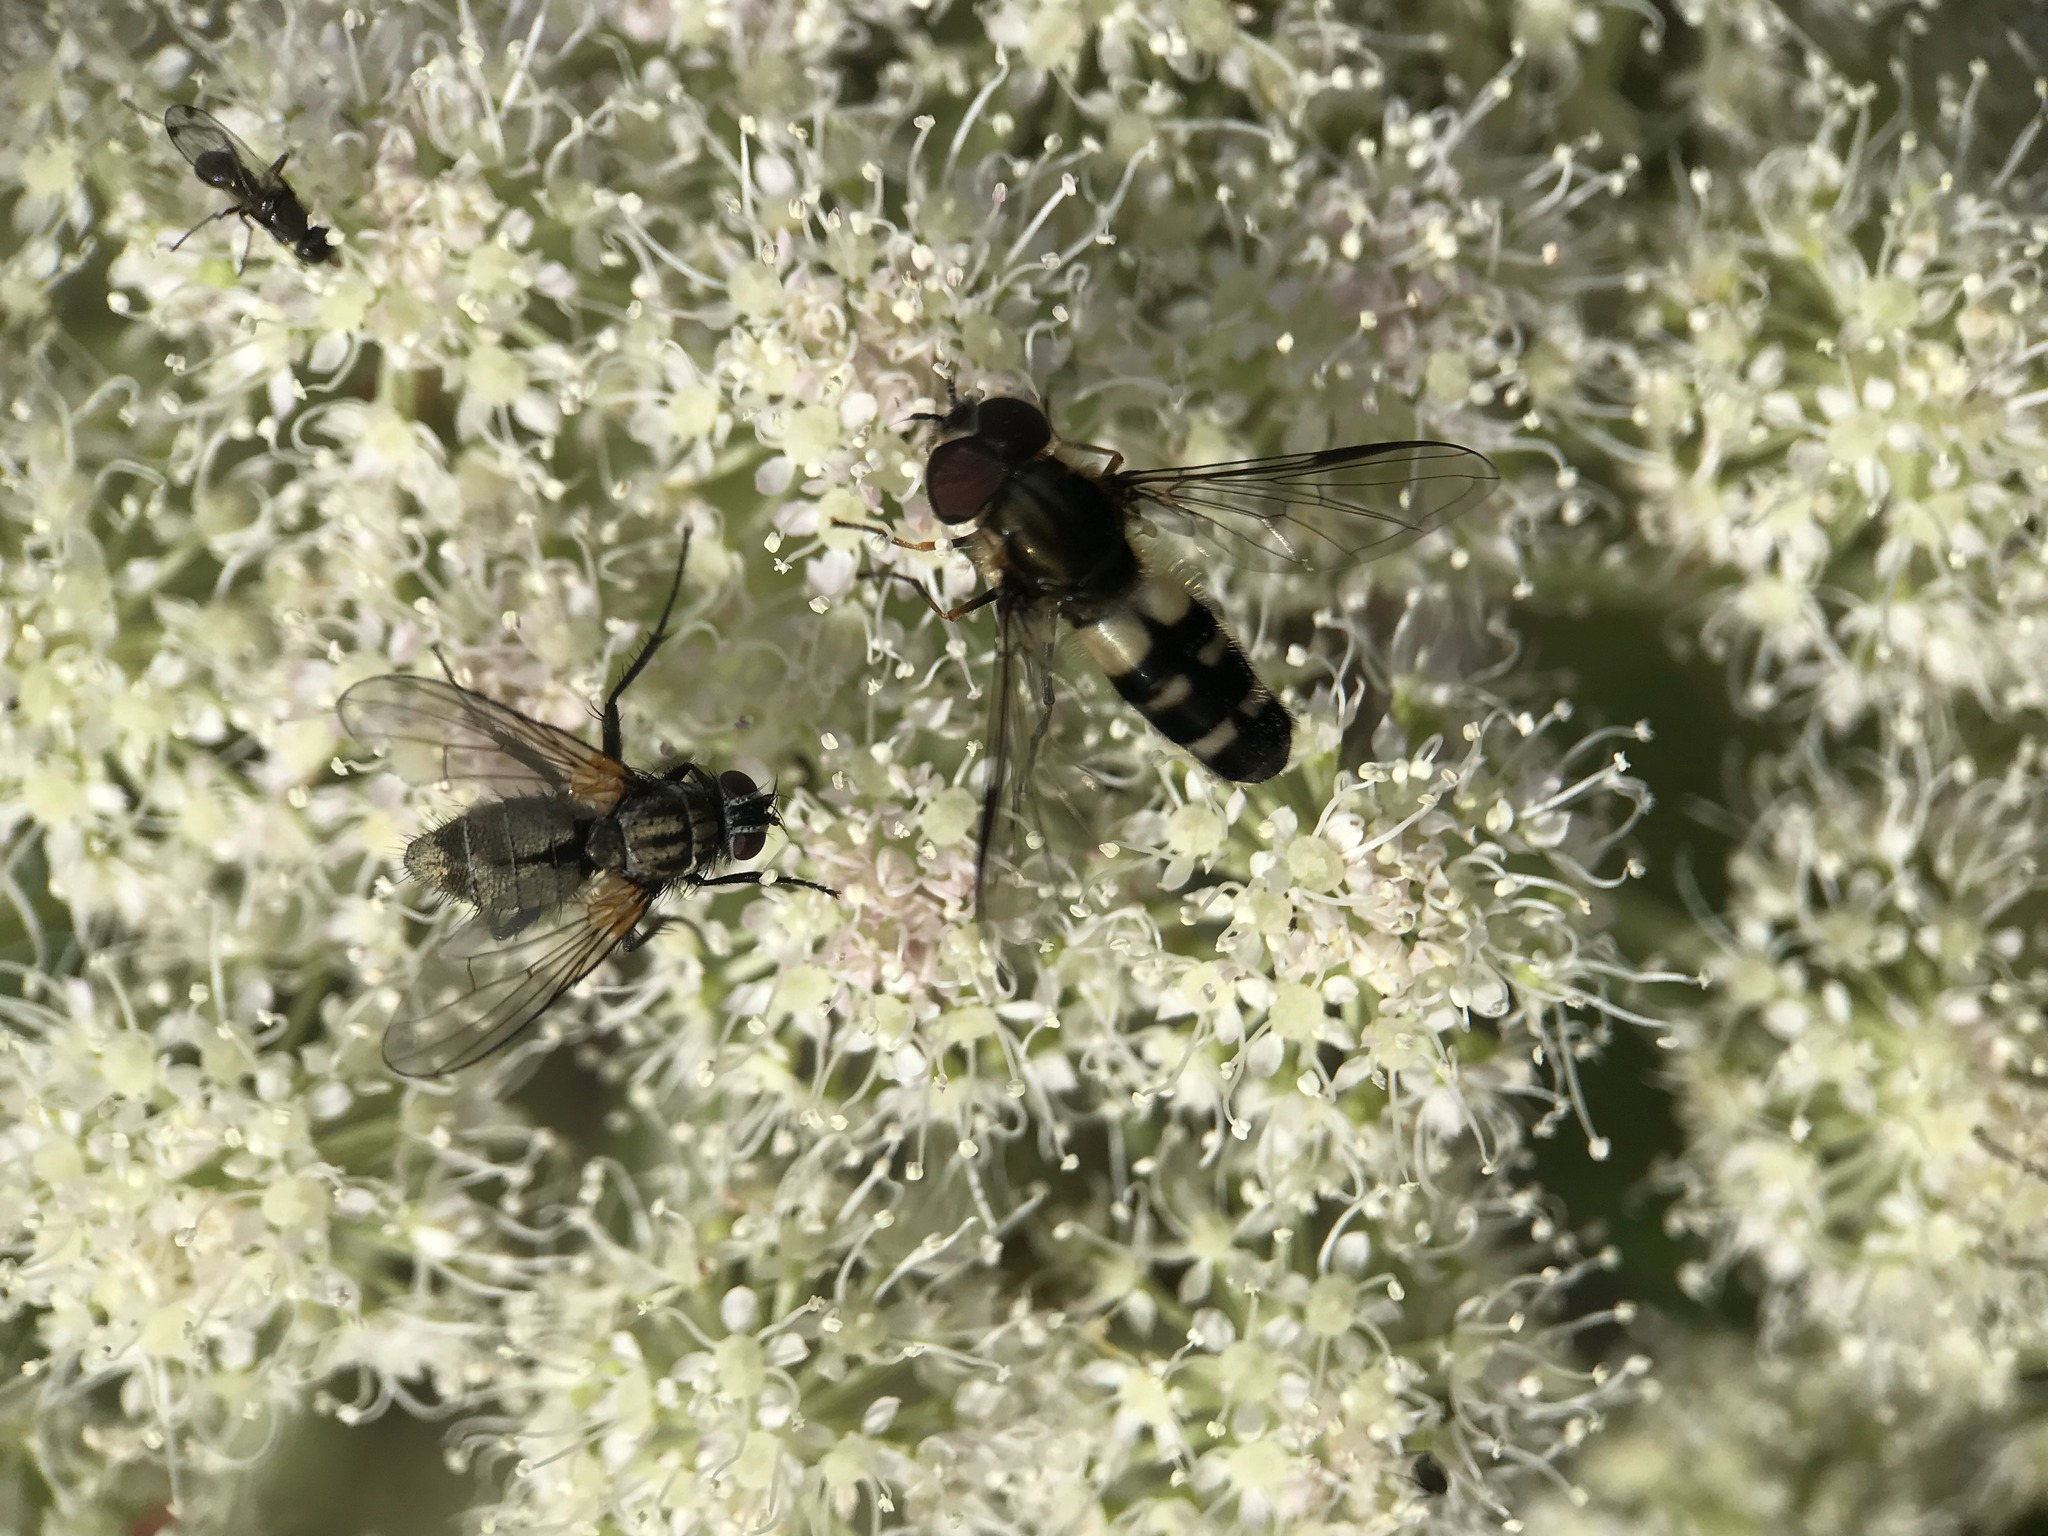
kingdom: Animalia
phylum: Arthropoda
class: Insecta
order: Diptera
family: Syrphidae
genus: Leucozona
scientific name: Leucozona laternaria
